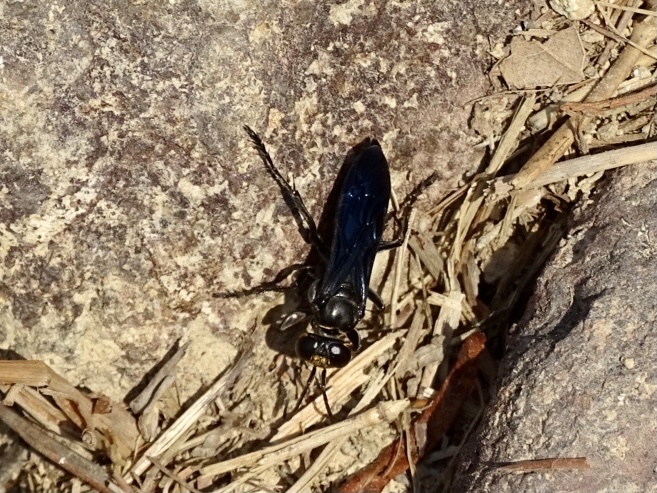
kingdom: Animalia
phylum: Arthropoda
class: Insecta
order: Hymenoptera
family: Crabronidae
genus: Liris
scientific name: Liris anthracinus
